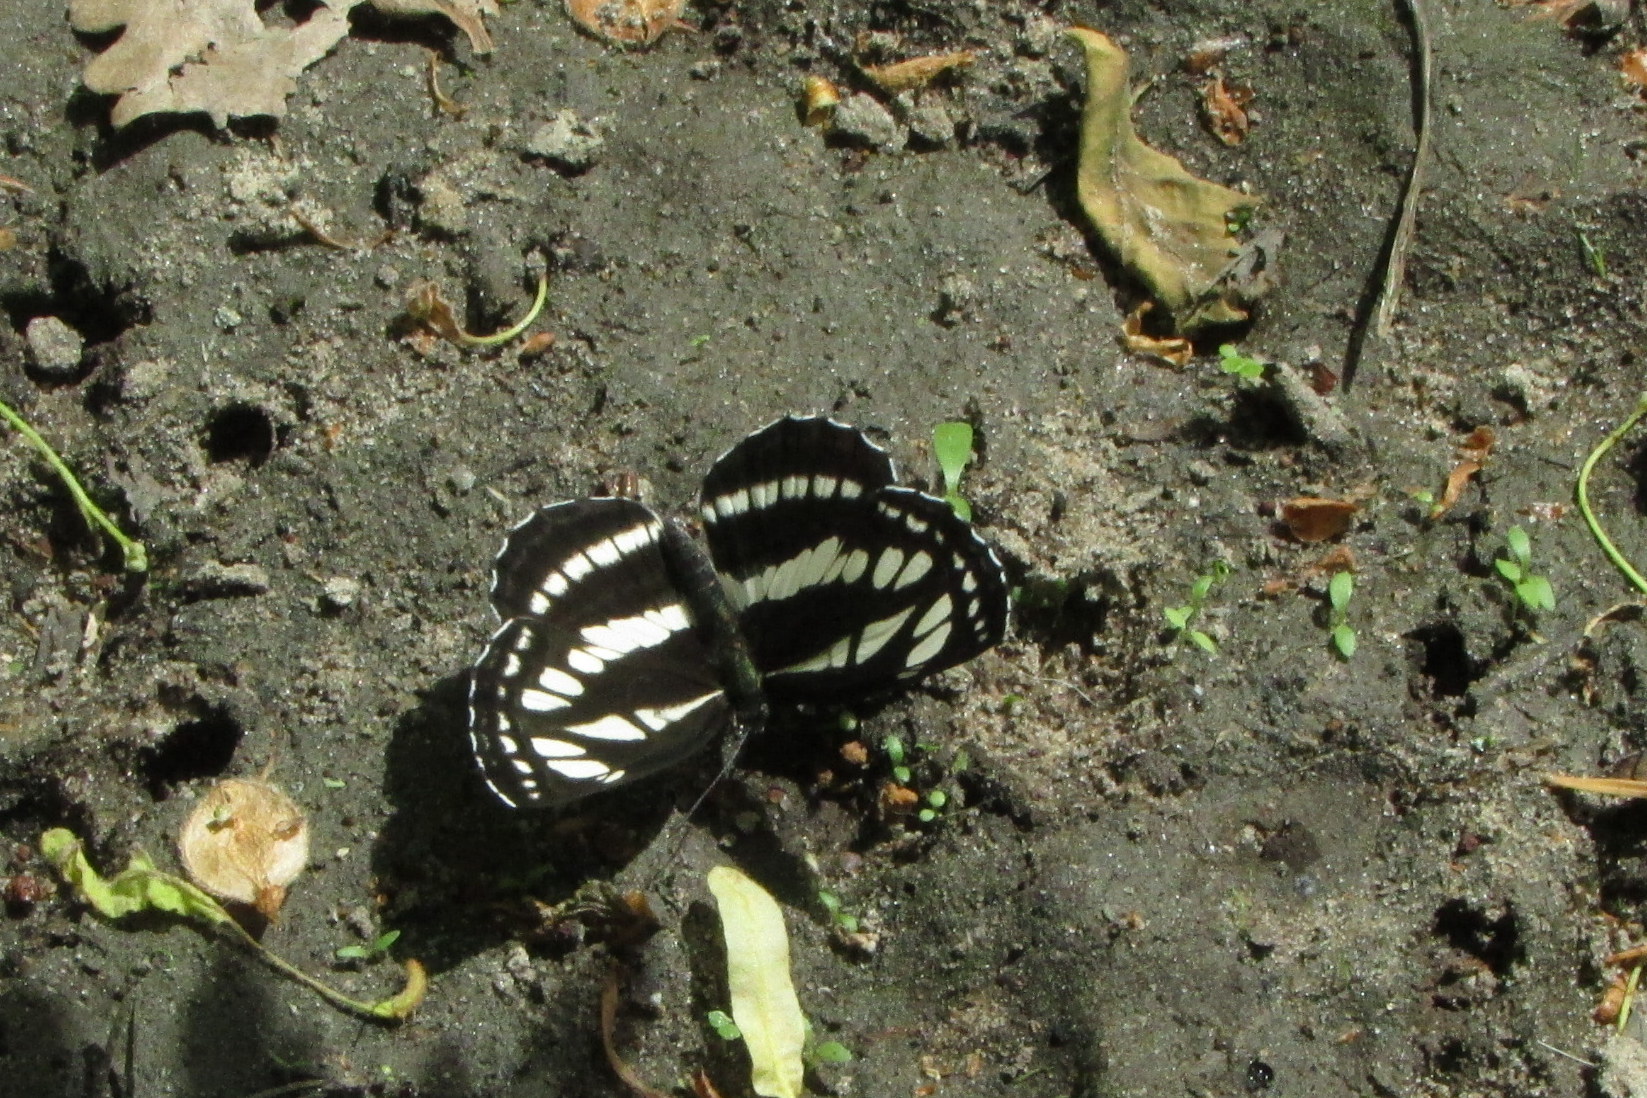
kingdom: Animalia
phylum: Arthropoda
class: Insecta
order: Lepidoptera
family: Nymphalidae
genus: Neptis
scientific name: Neptis sappho
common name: Common glider
